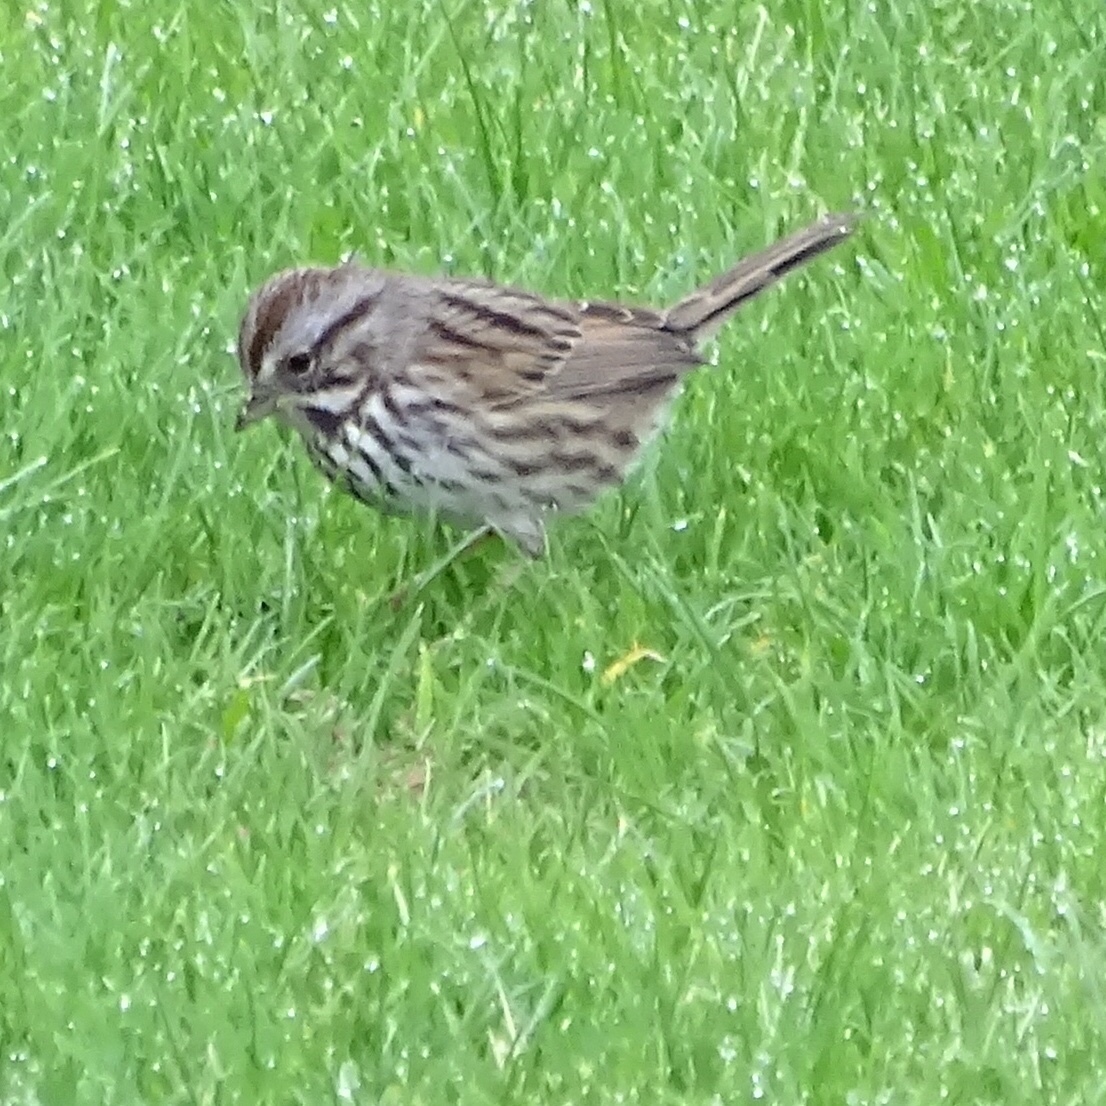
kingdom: Animalia
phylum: Chordata
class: Aves
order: Passeriformes
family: Passerellidae
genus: Melospiza
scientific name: Melospiza melodia
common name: Song sparrow
